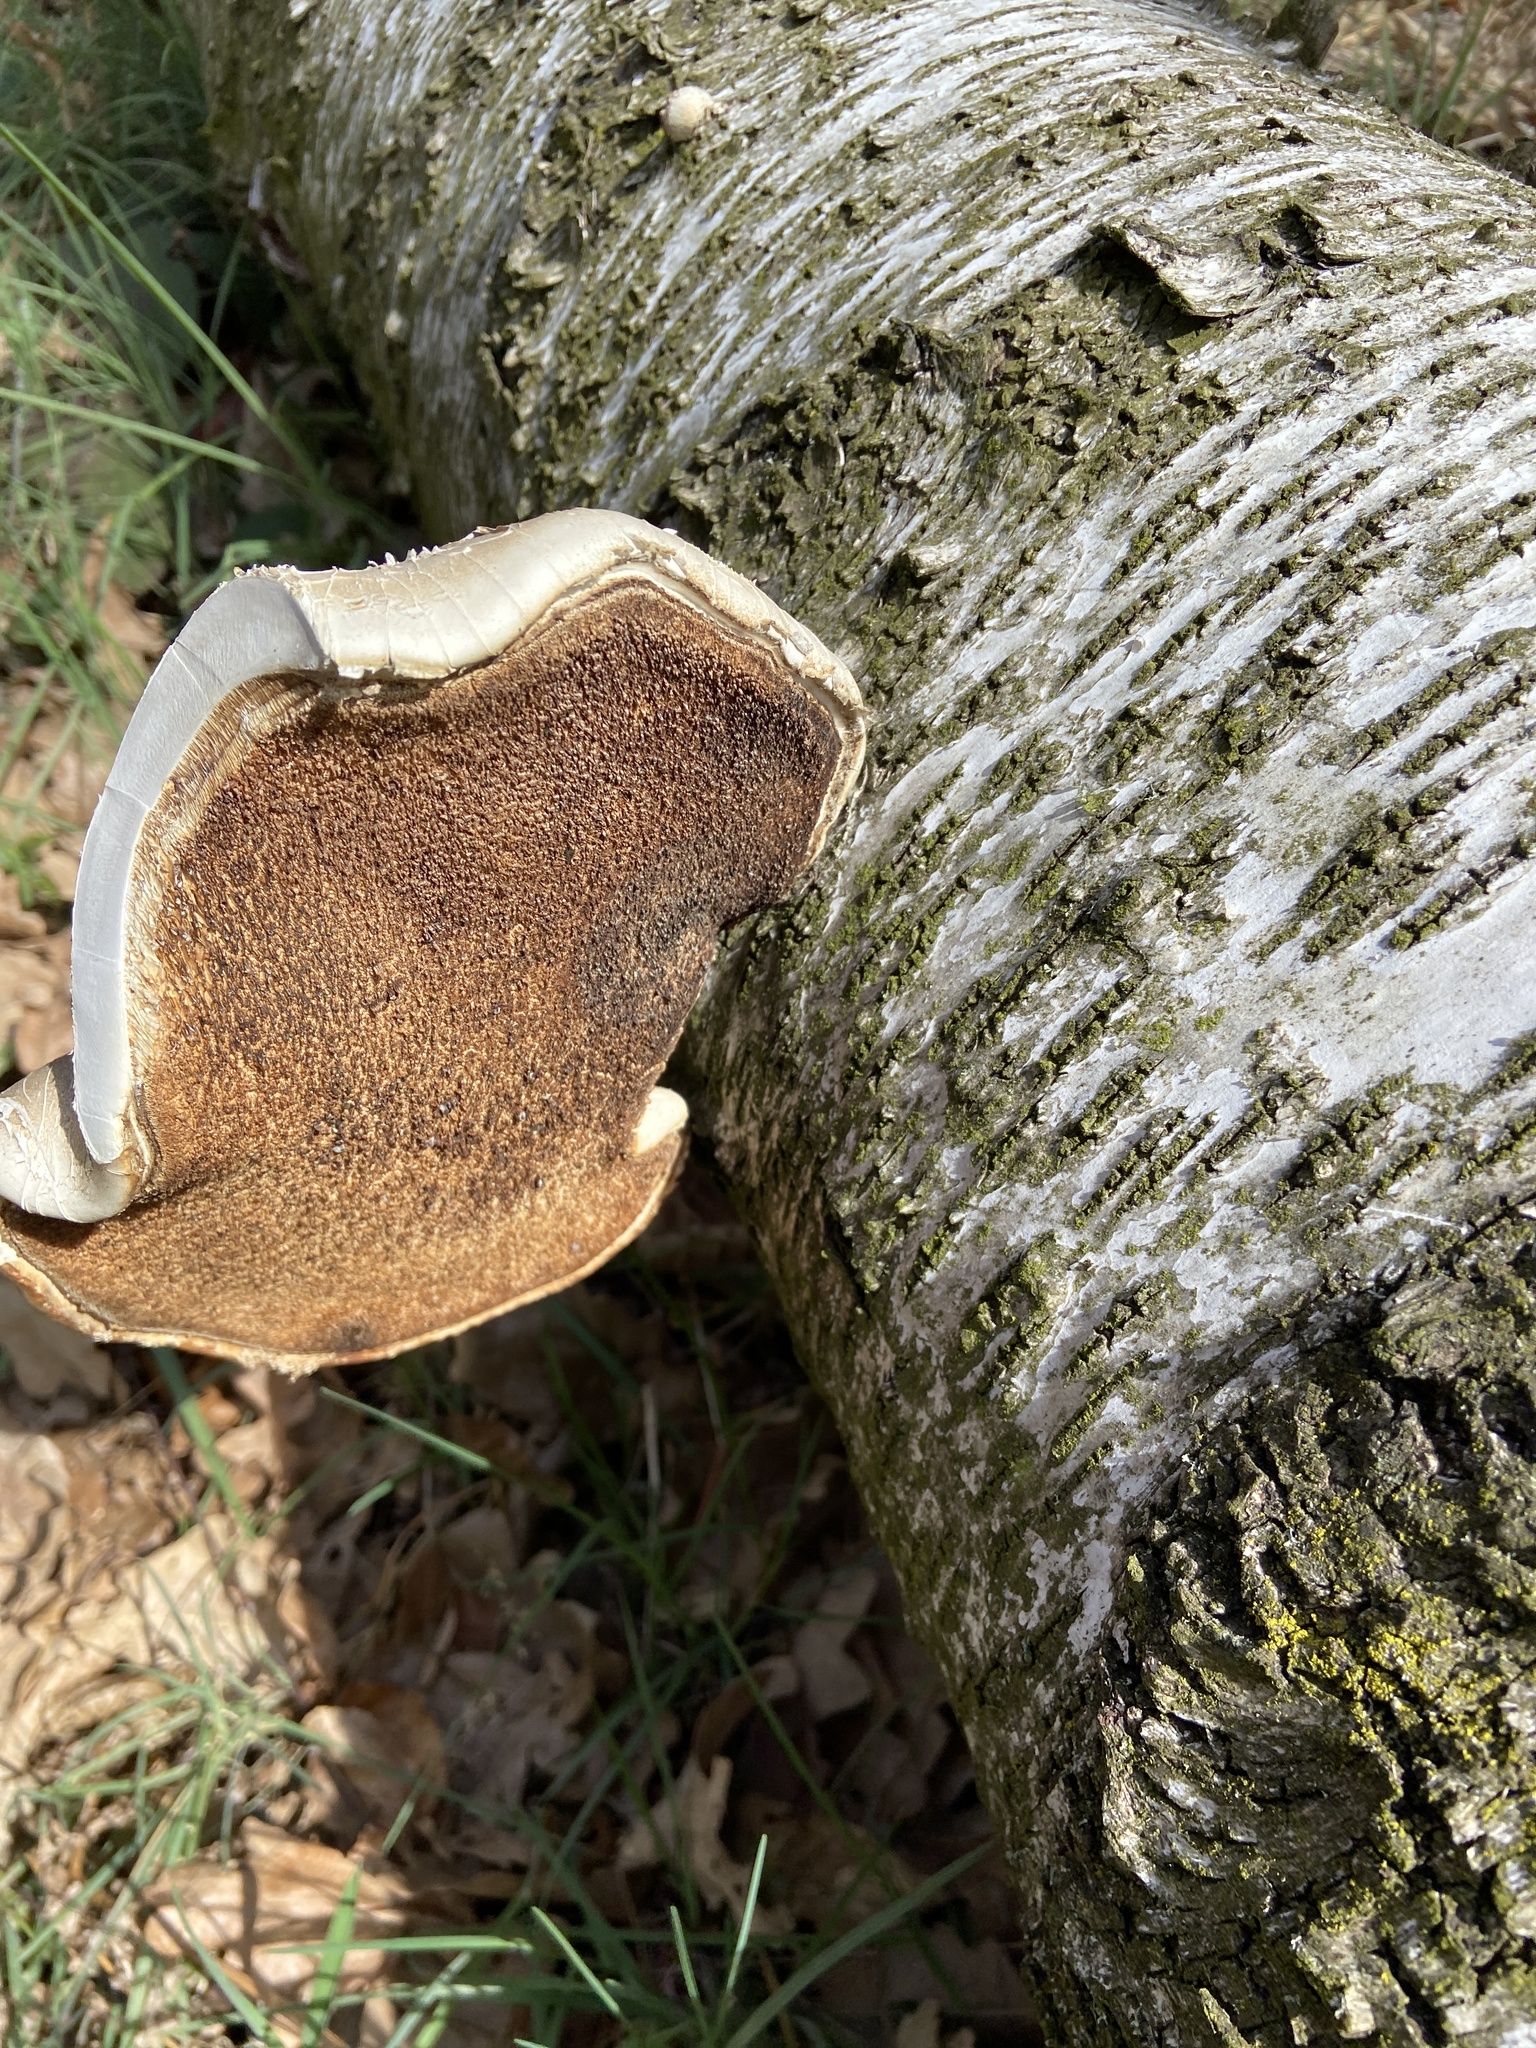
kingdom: Fungi
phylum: Basidiomycota
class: Agaricomycetes
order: Polyporales
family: Fomitopsidaceae
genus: Fomitopsis
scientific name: Fomitopsis betulina
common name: Birch polypore
